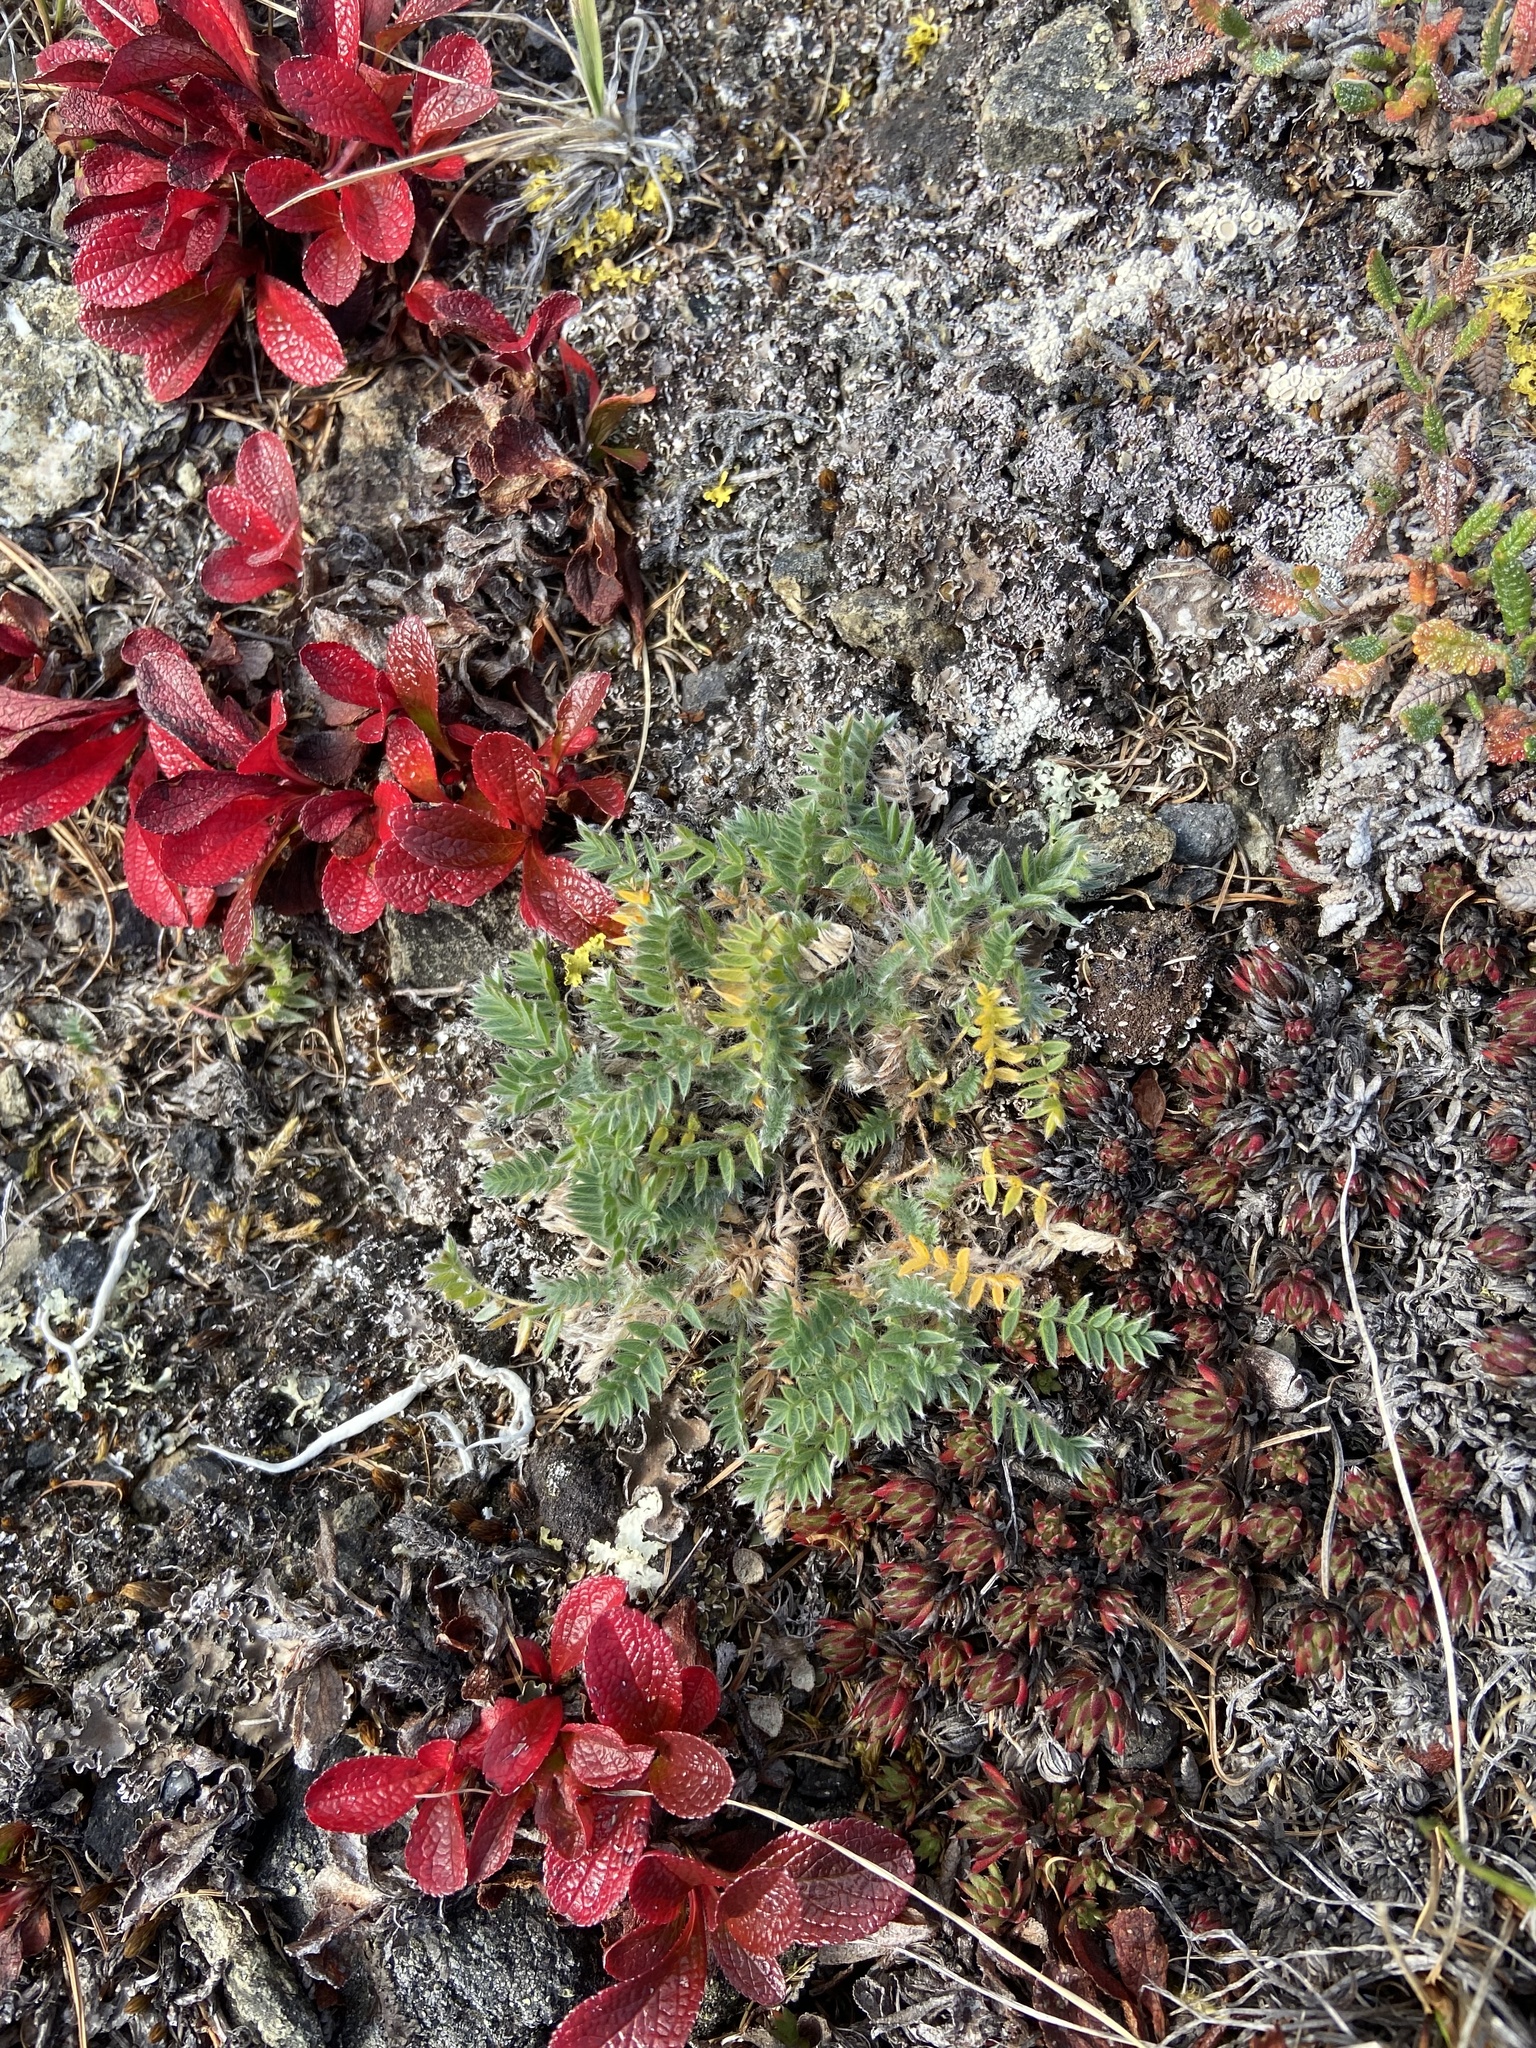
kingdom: Plantae
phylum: Tracheophyta
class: Magnoliopsida
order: Fabales
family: Fabaceae
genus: Oxytropis
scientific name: Oxytropis susumanica
